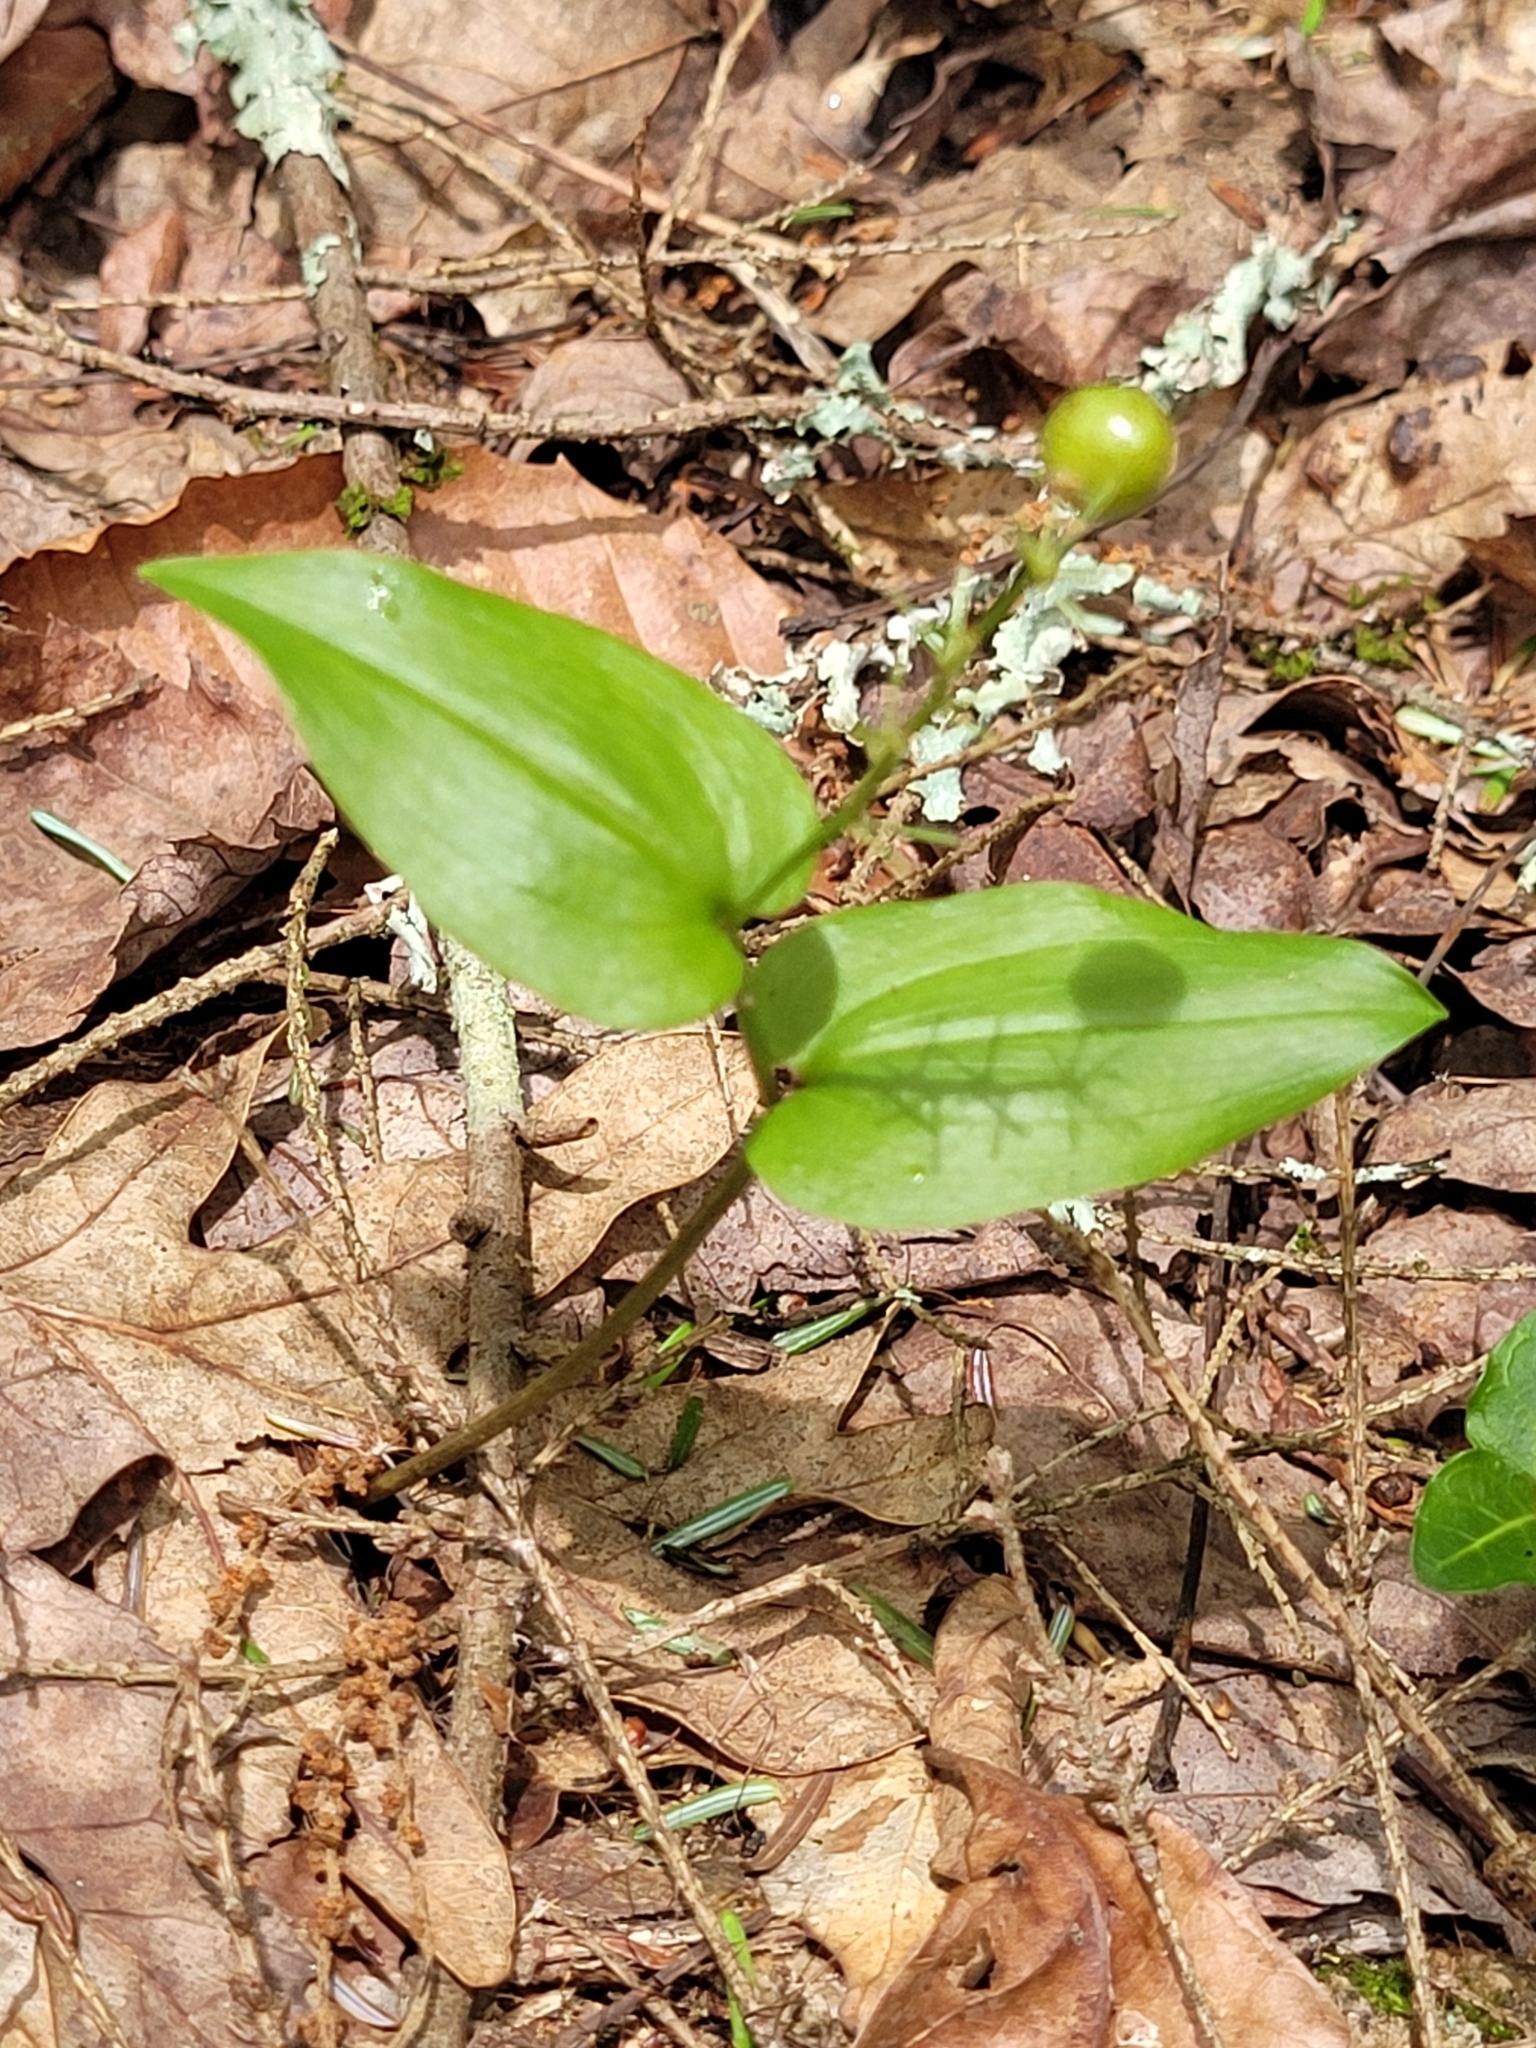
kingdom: Plantae
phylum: Tracheophyta
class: Liliopsida
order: Asparagales
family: Asparagaceae
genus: Maianthemum
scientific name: Maianthemum canadense
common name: False lily-of-the-valley
